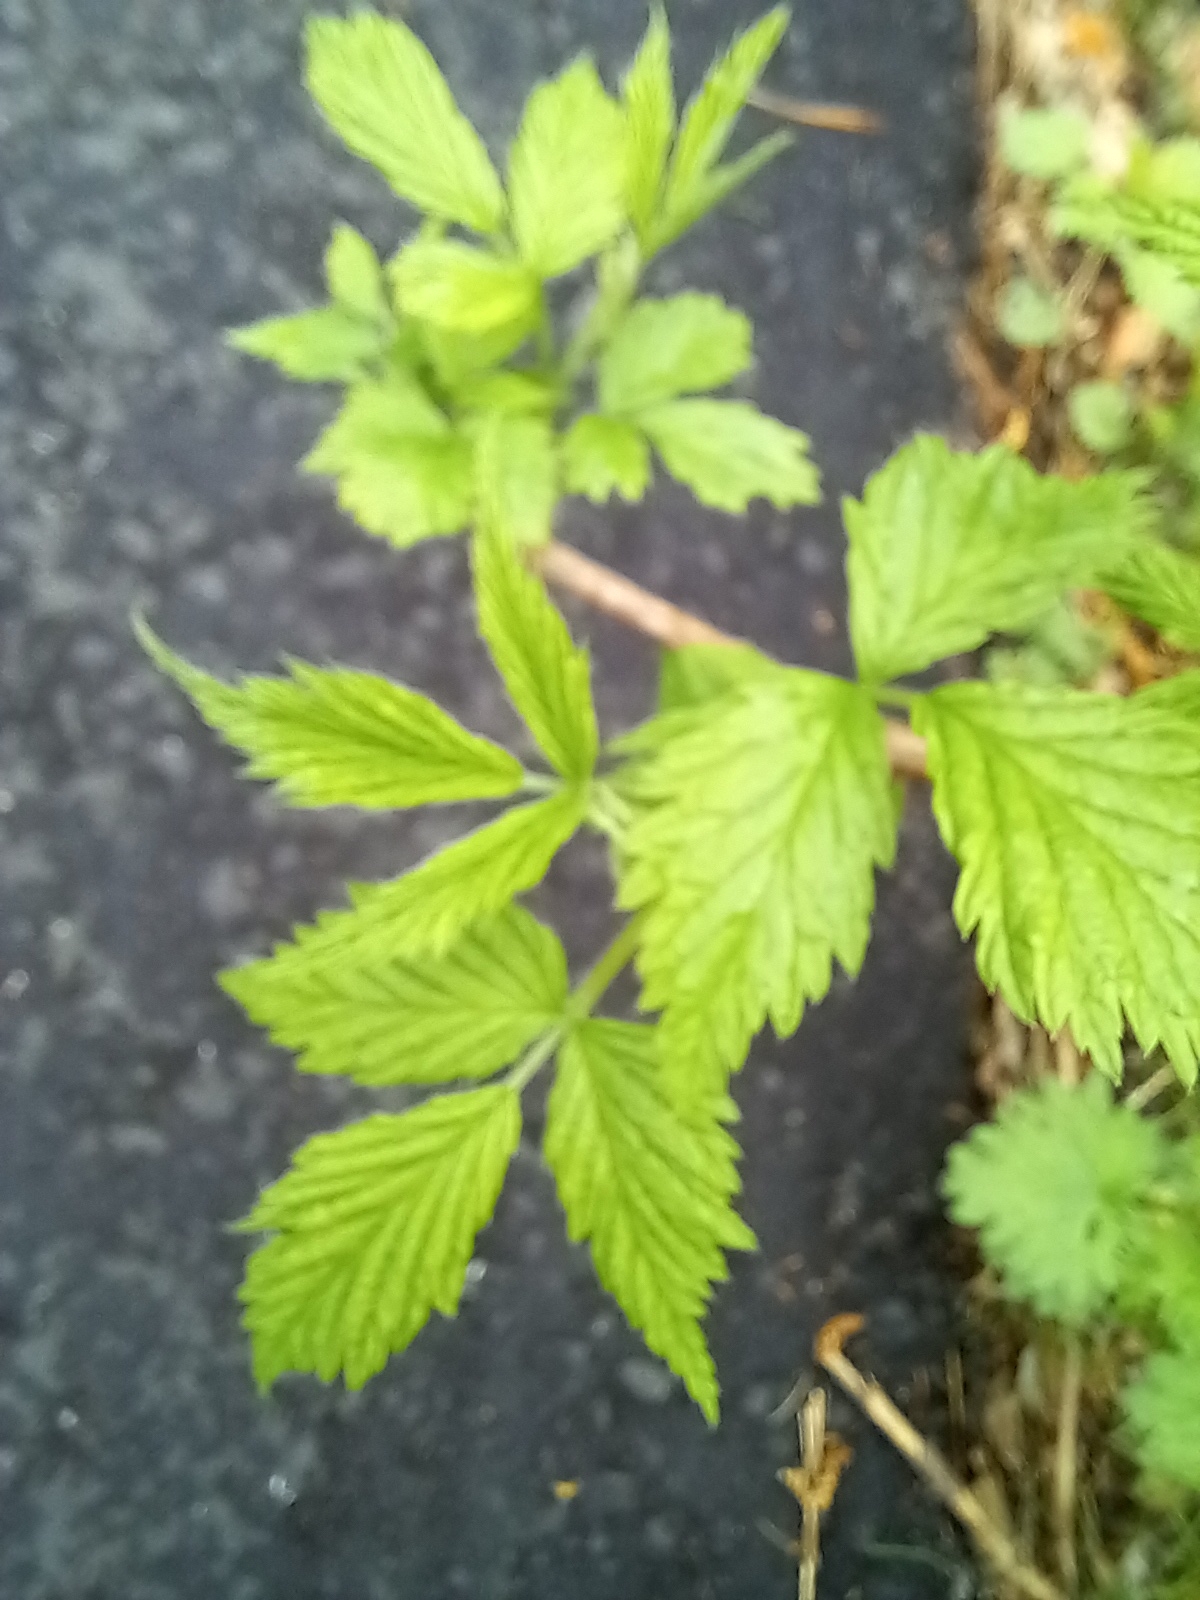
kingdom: Plantae
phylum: Tracheophyta
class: Magnoliopsida
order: Rosales
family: Rosaceae
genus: Rubus
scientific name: Rubus idaeus
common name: Raspberry
